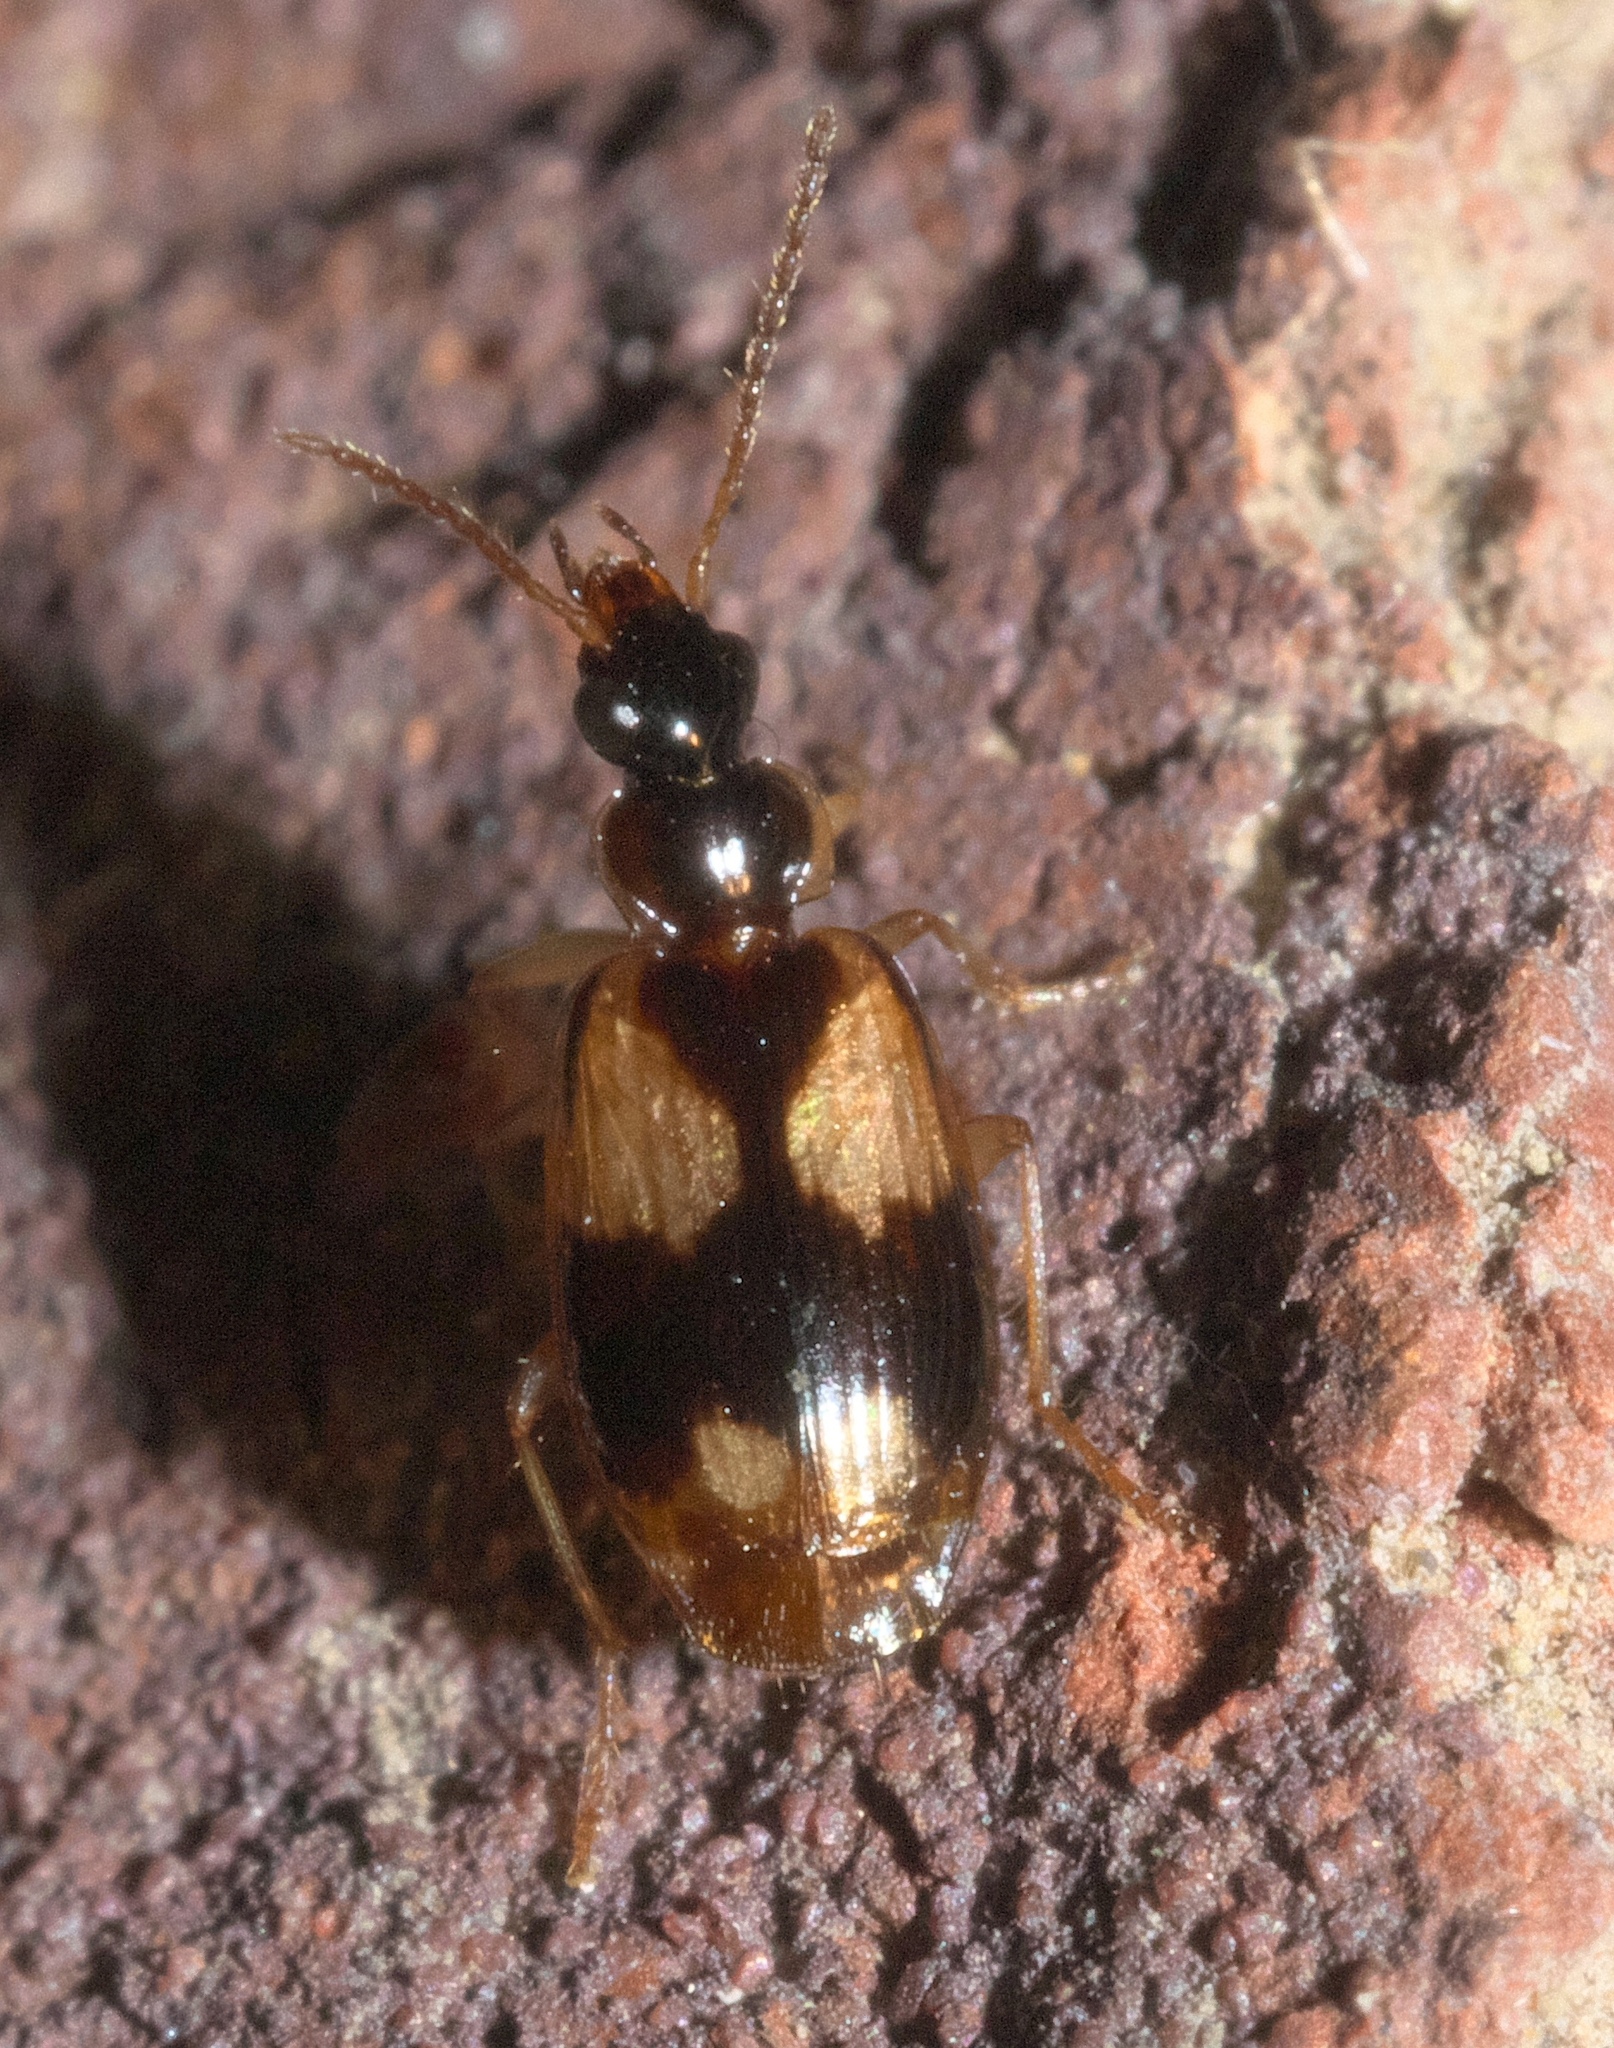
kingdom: Animalia
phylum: Arthropoda
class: Insecta
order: Coleoptera
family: Carabidae
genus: Lebia
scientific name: Lebia ornata
